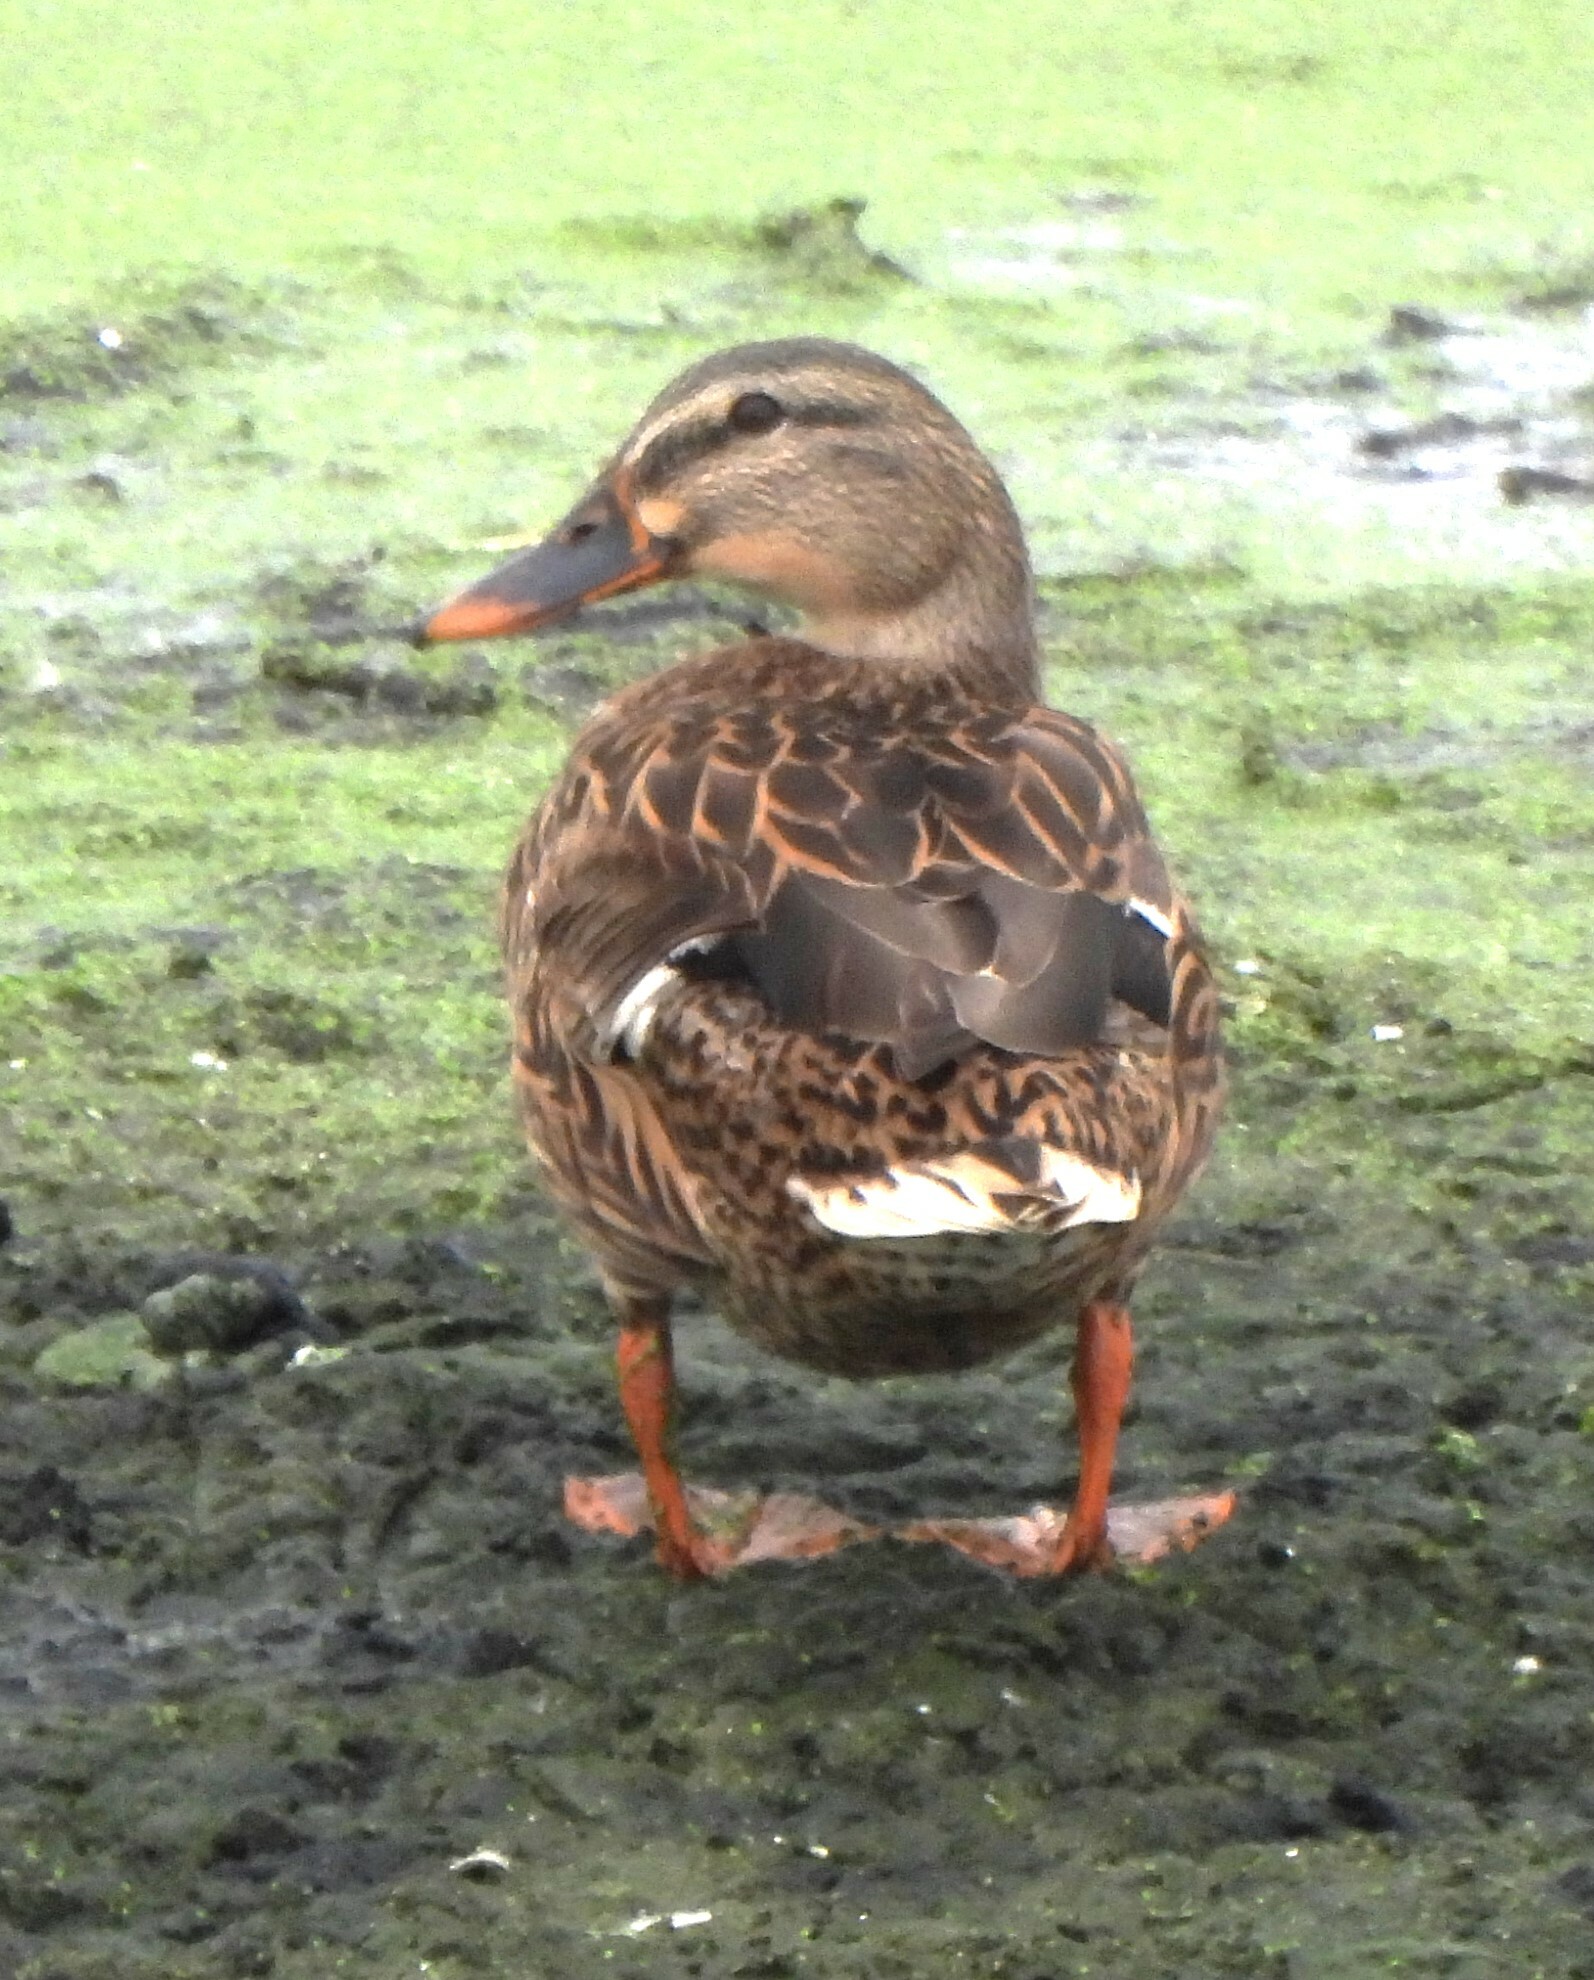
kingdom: Animalia
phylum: Chordata
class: Aves
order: Anseriformes
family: Anatidae
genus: Anas
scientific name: Anas platyrhynchos
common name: Mallard
